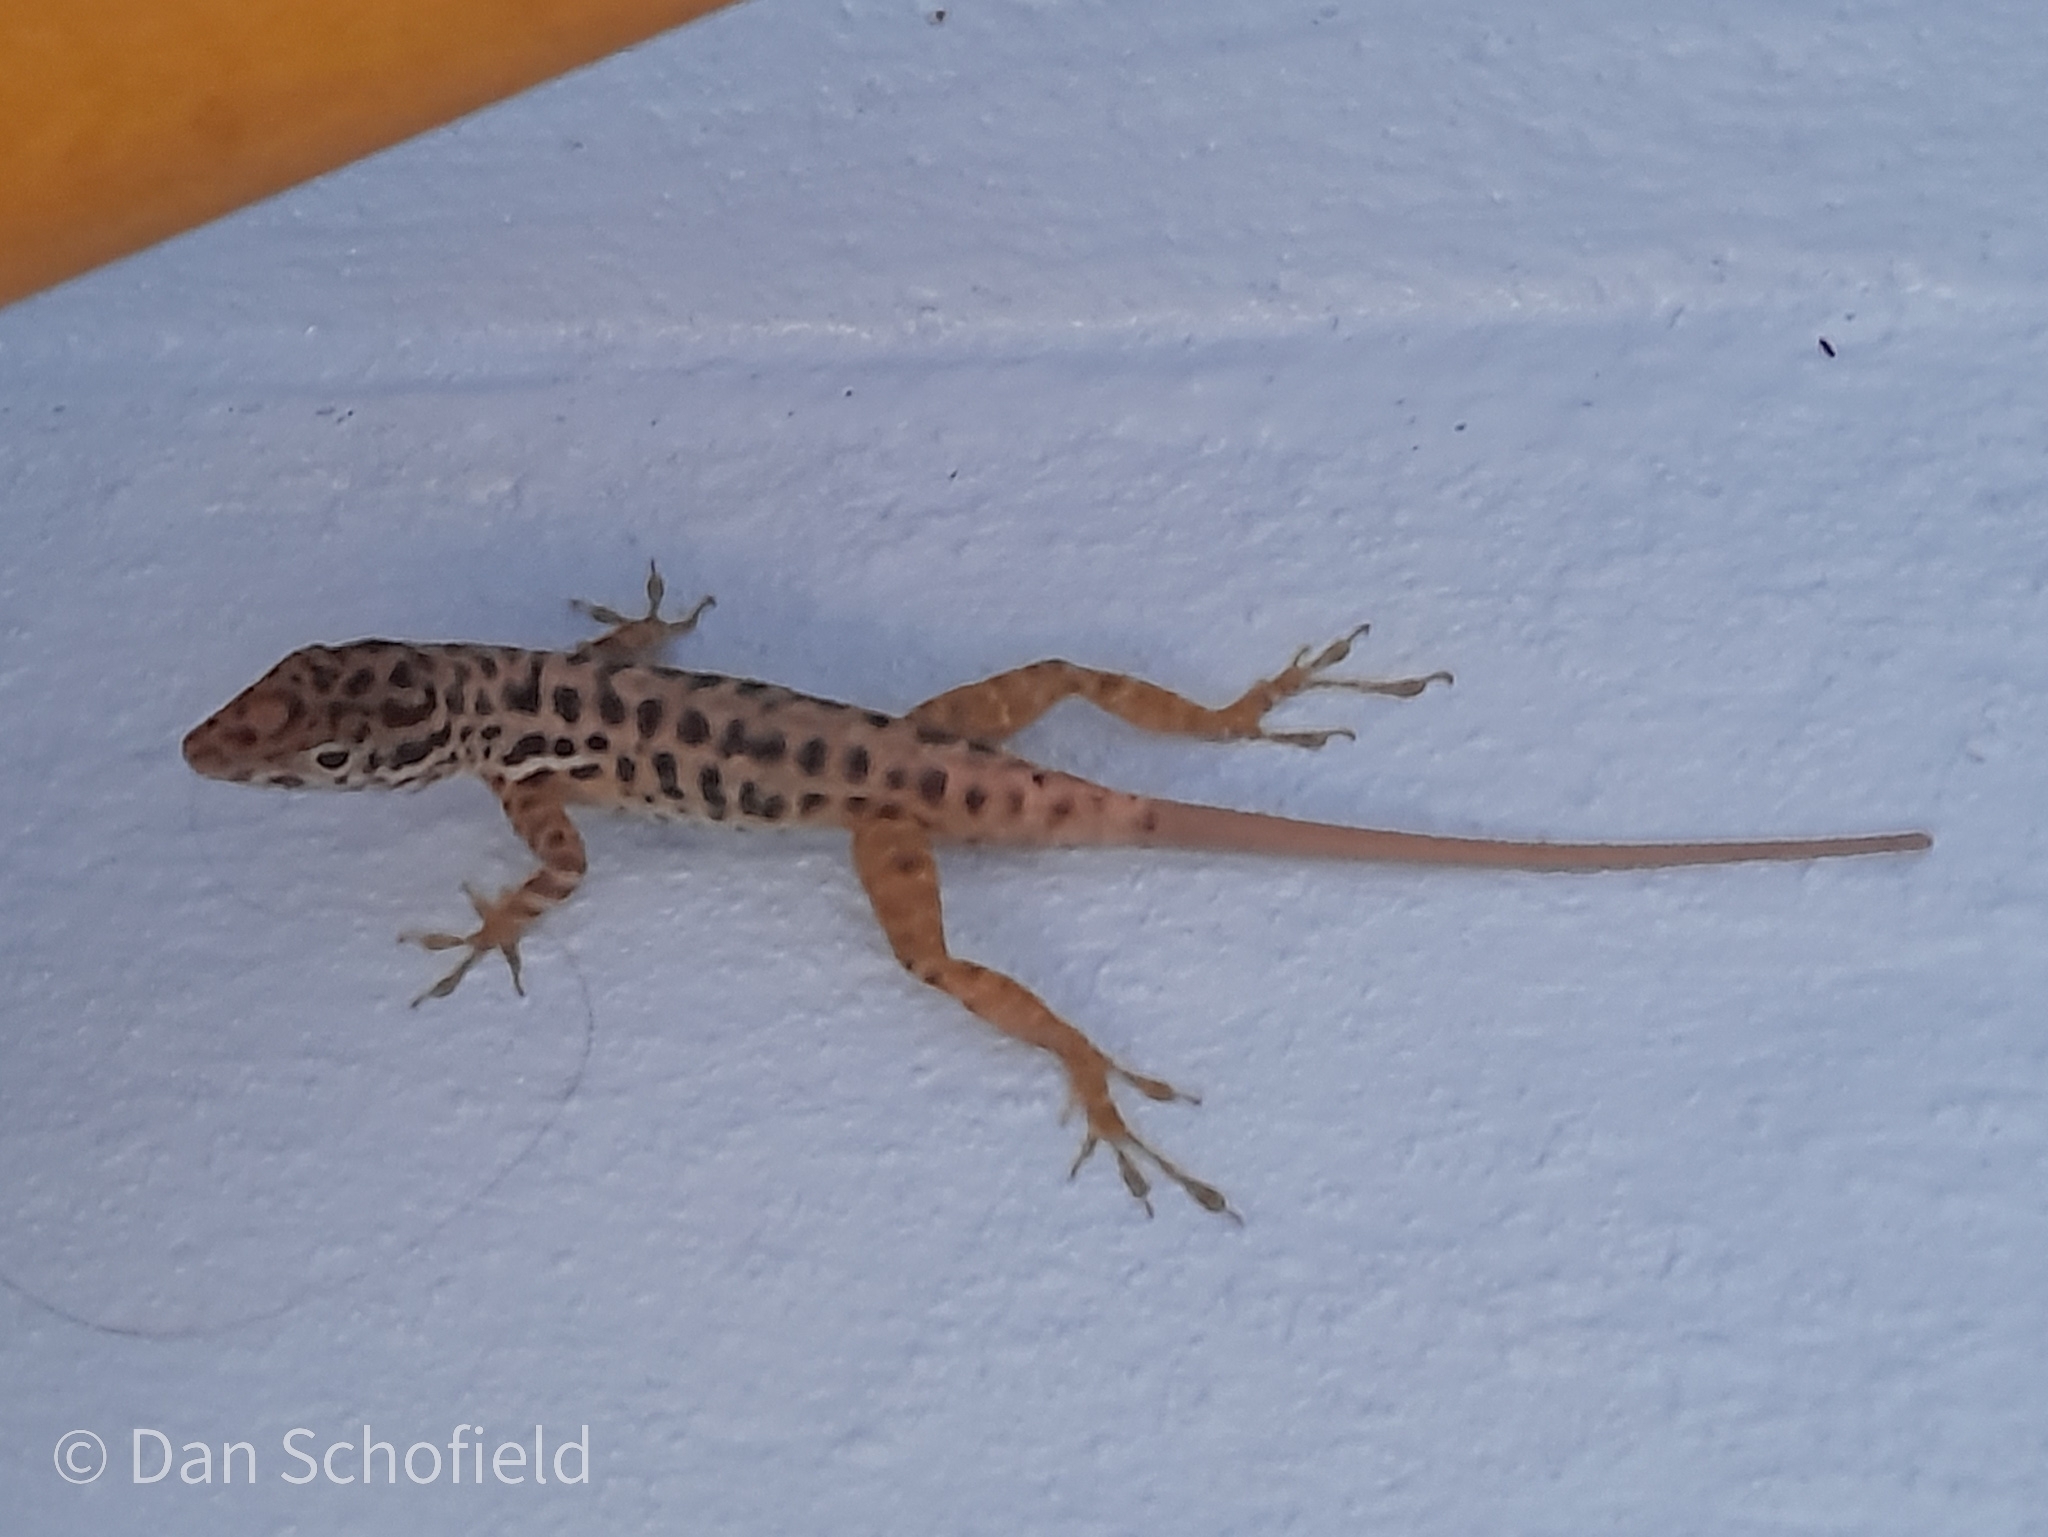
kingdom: Animalia
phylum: Chordata
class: Squamata
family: Dactyloidae
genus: Anolis
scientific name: Anolis sabanus
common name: Saba anole
